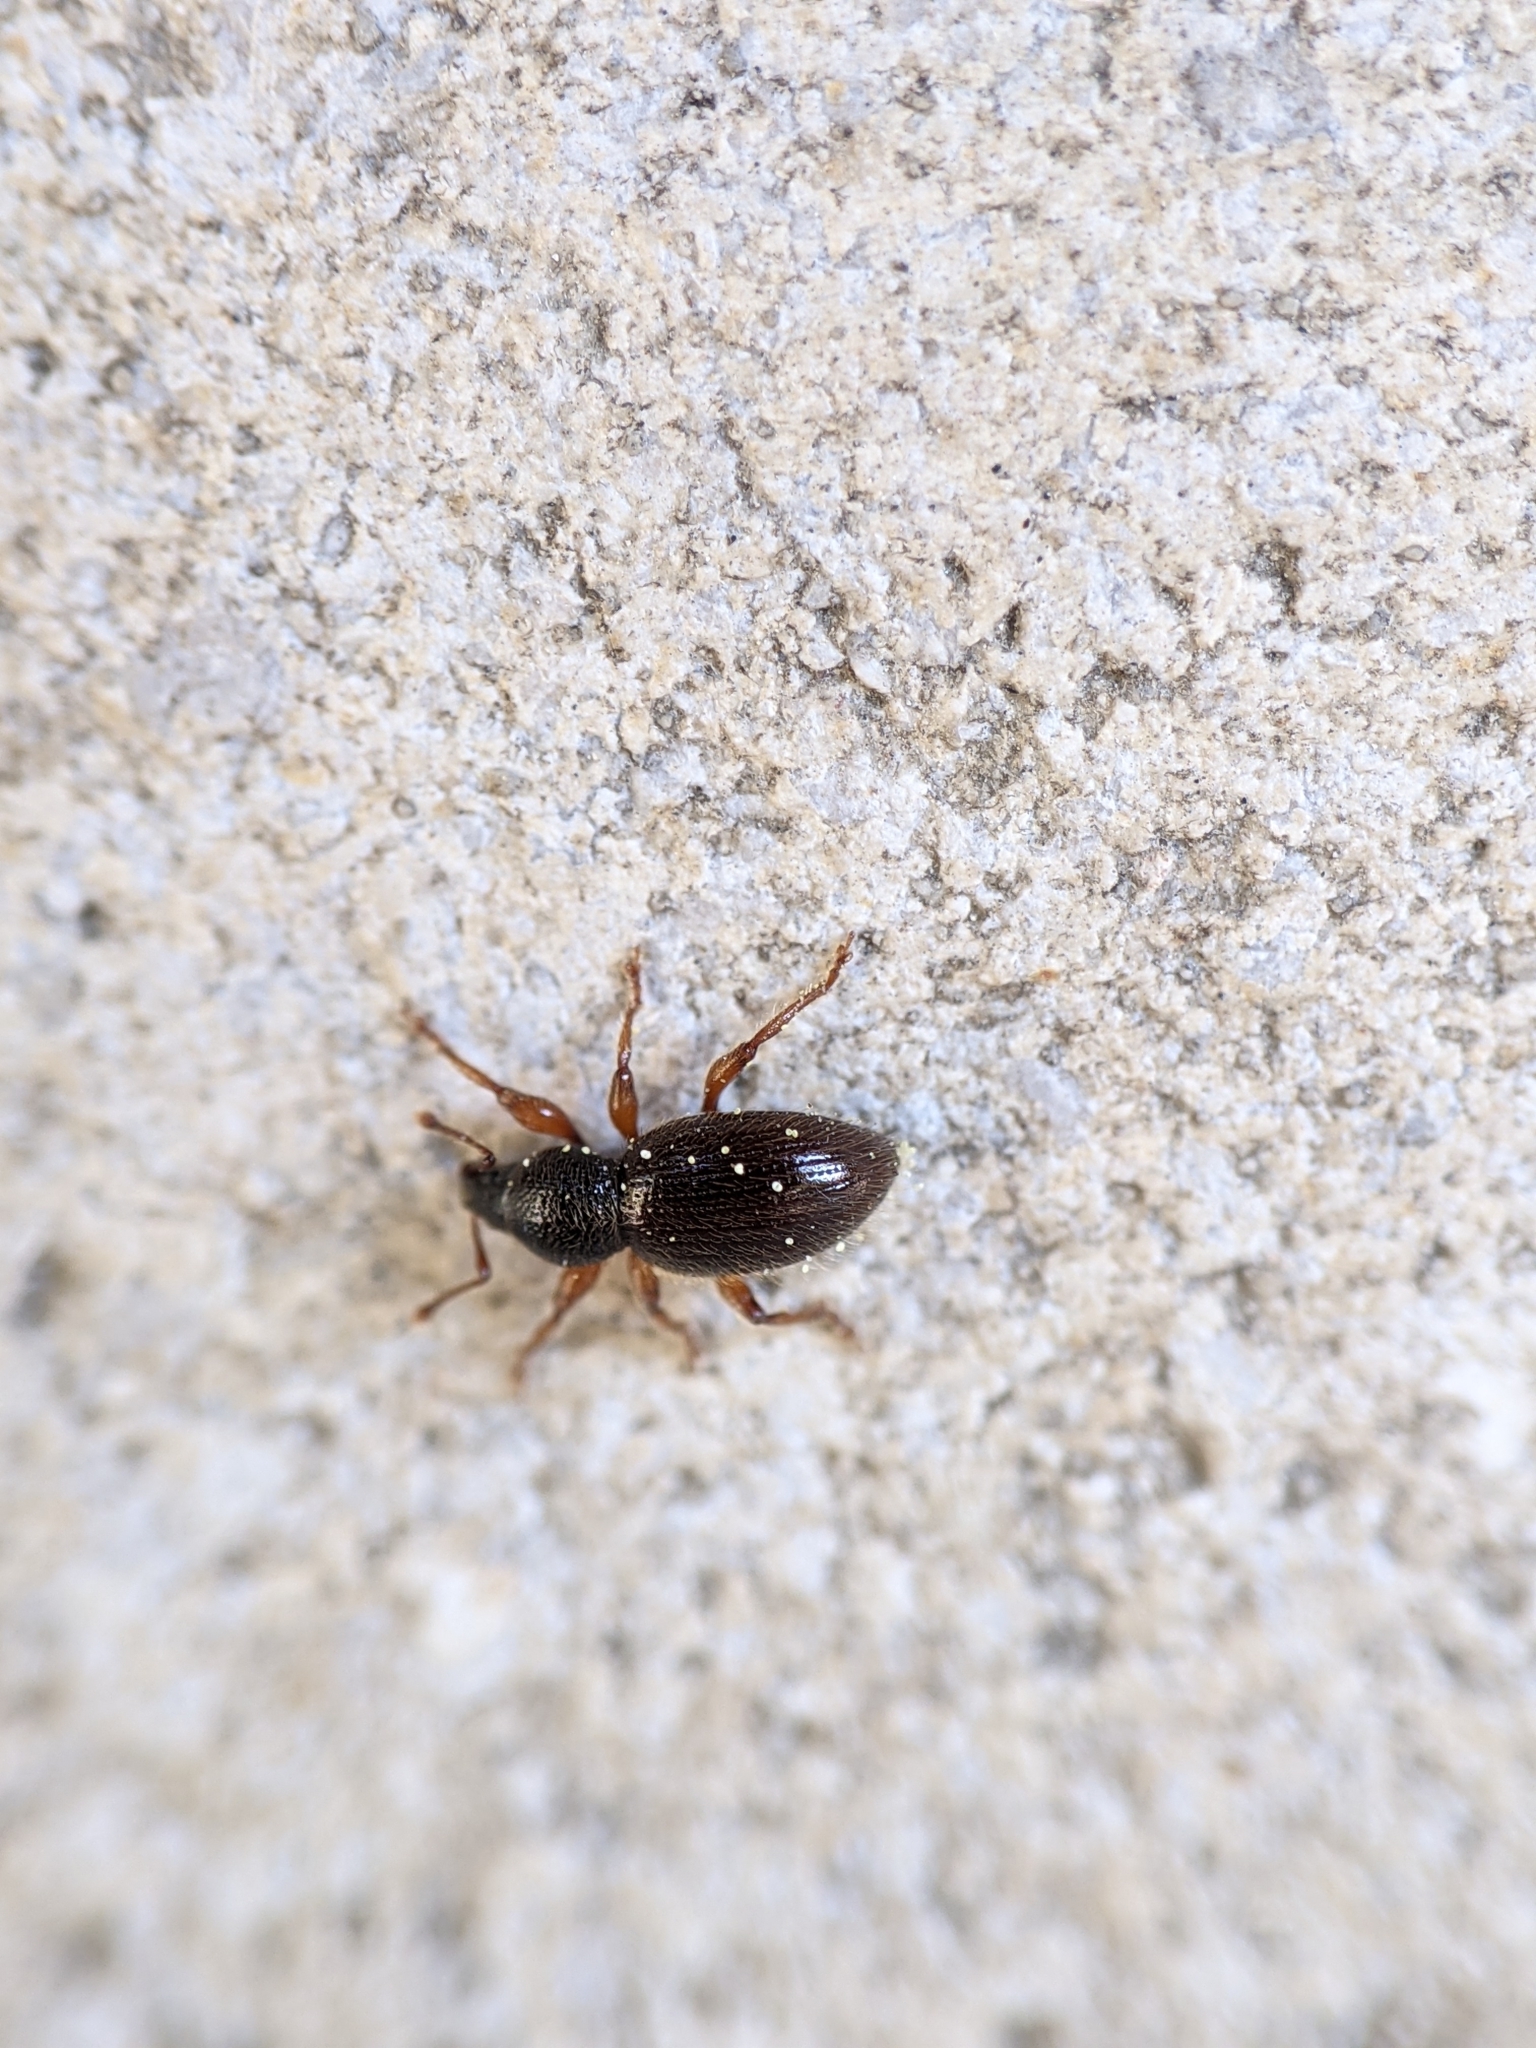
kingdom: Animalia
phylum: Arthropoda
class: Insecta
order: Coleoptera
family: Curculionidae
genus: Exomias
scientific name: Exomias pellucidus
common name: Hairy spider weevil
